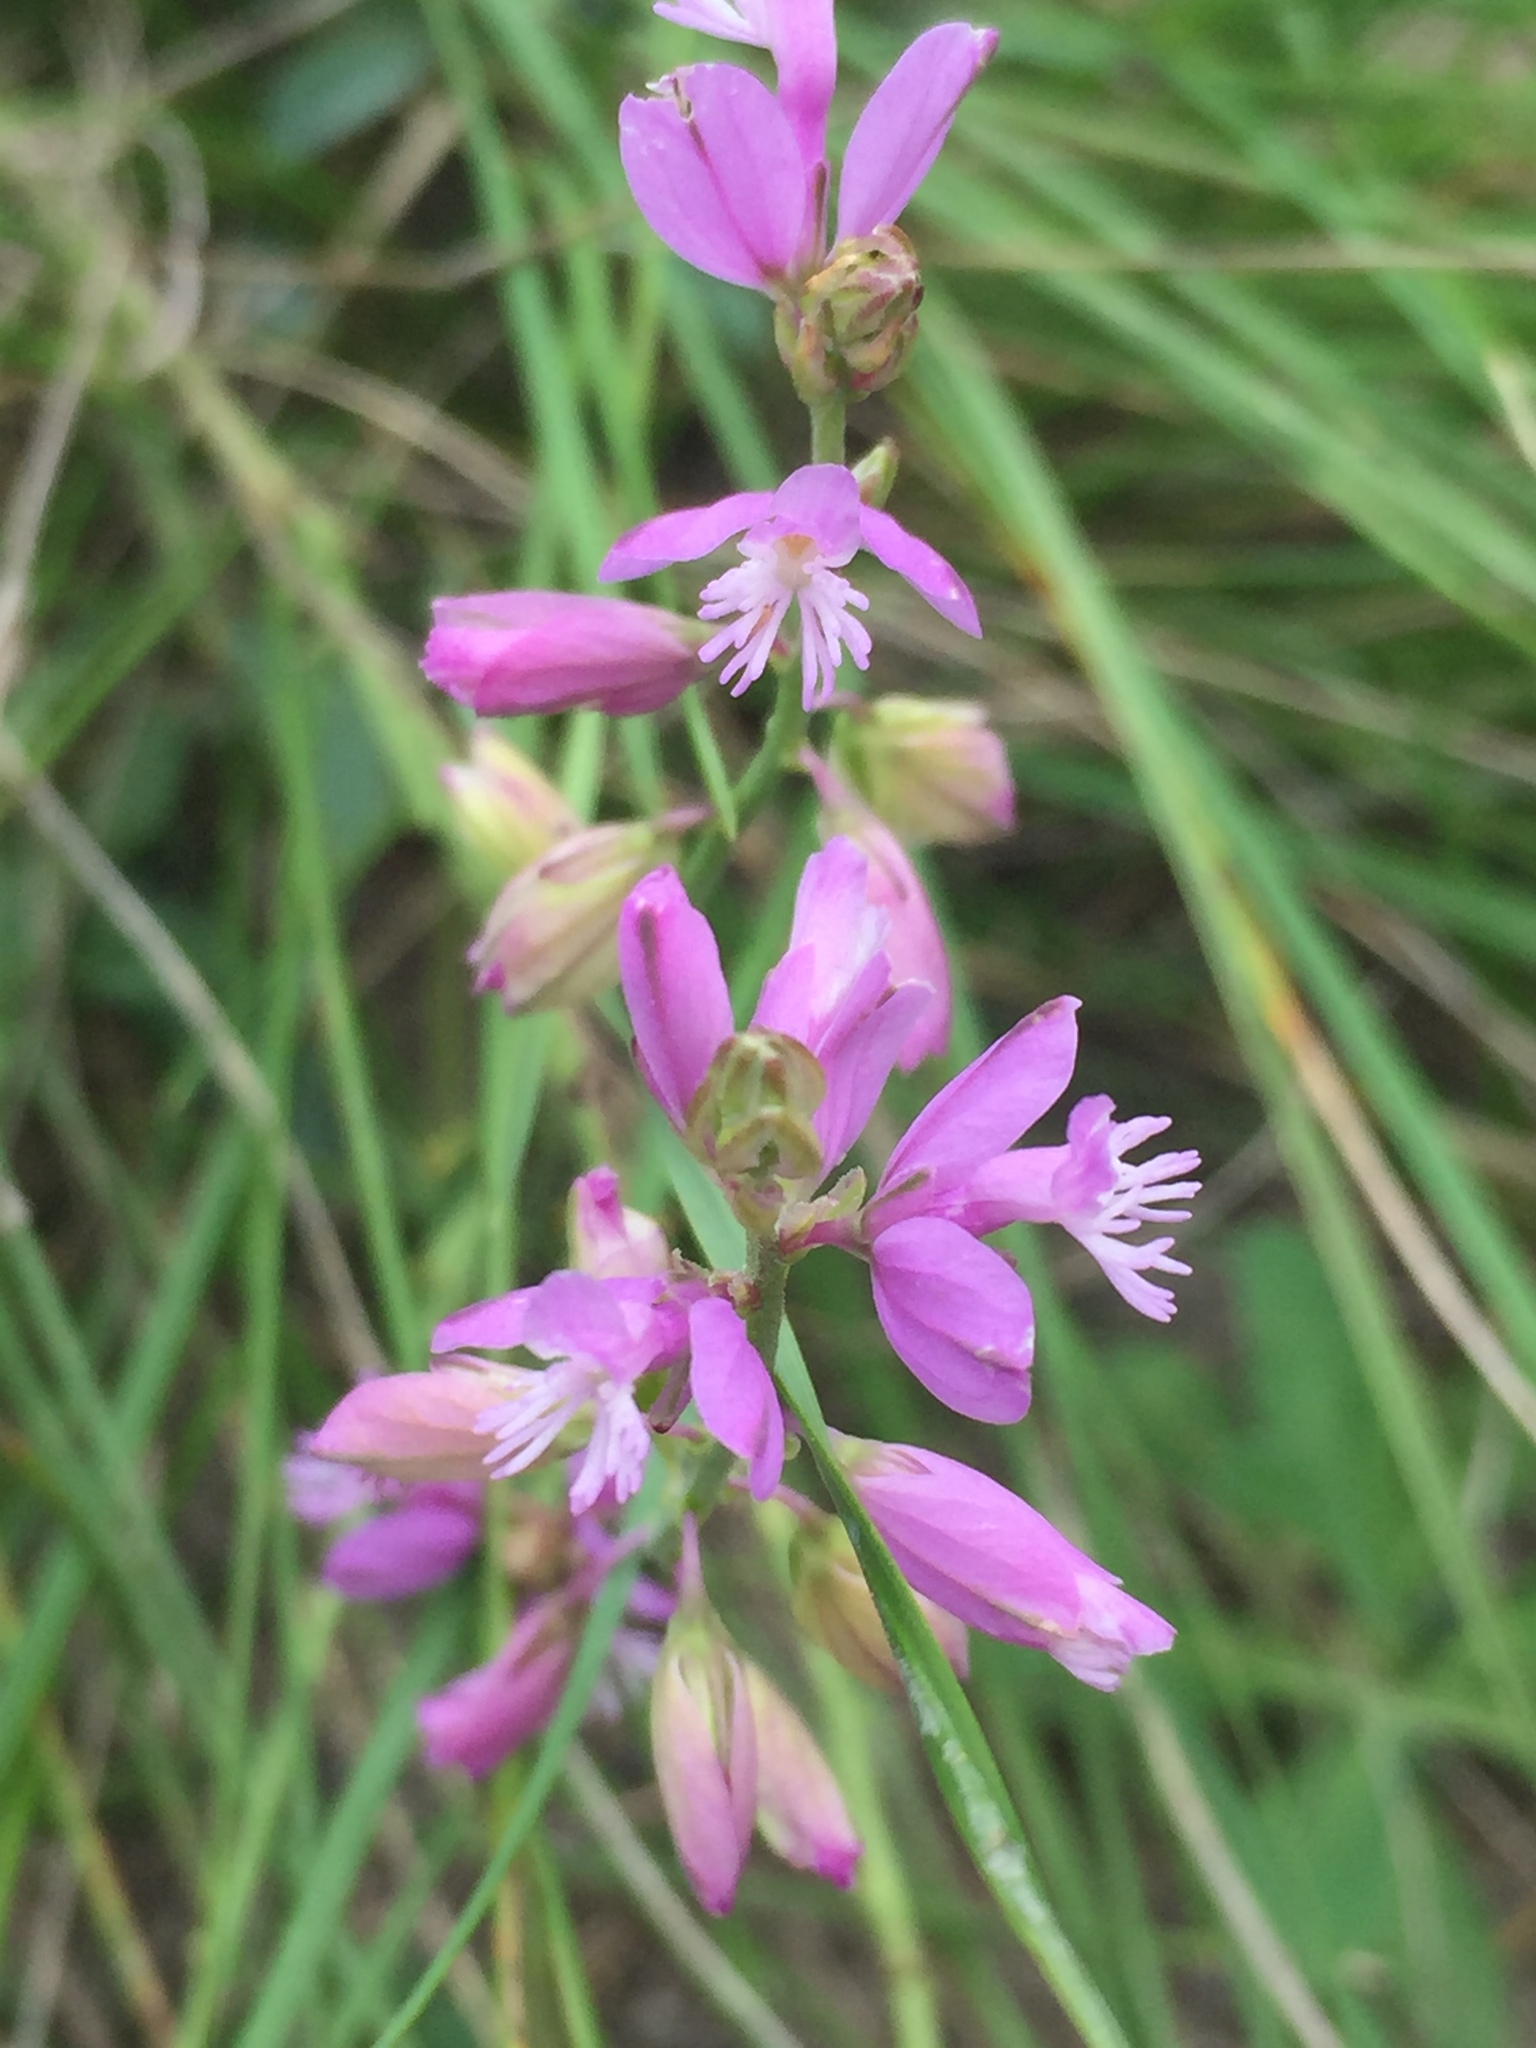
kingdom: Plantae
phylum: Tracheophyta
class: Magnoliopsida
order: Fabales
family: Polygalaceae
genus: Polygala
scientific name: Polygala nicaeensis
